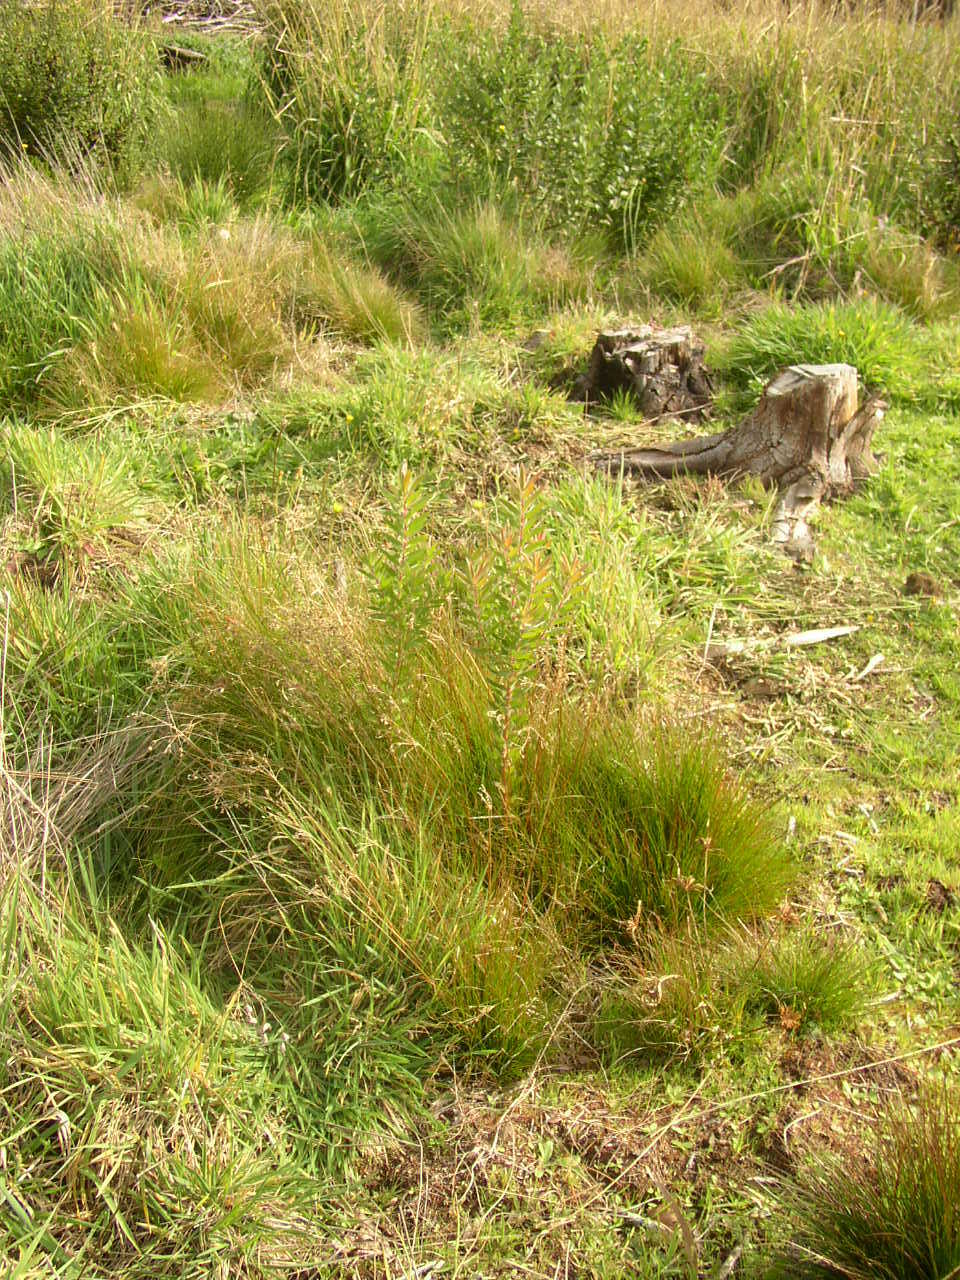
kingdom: Plantae
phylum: Tracheophyta
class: Magnoliopsida
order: Proteales
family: Proteaceae
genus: Leucadendron
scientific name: Leucadendron macowanii
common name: Acacia-leaf conebush
